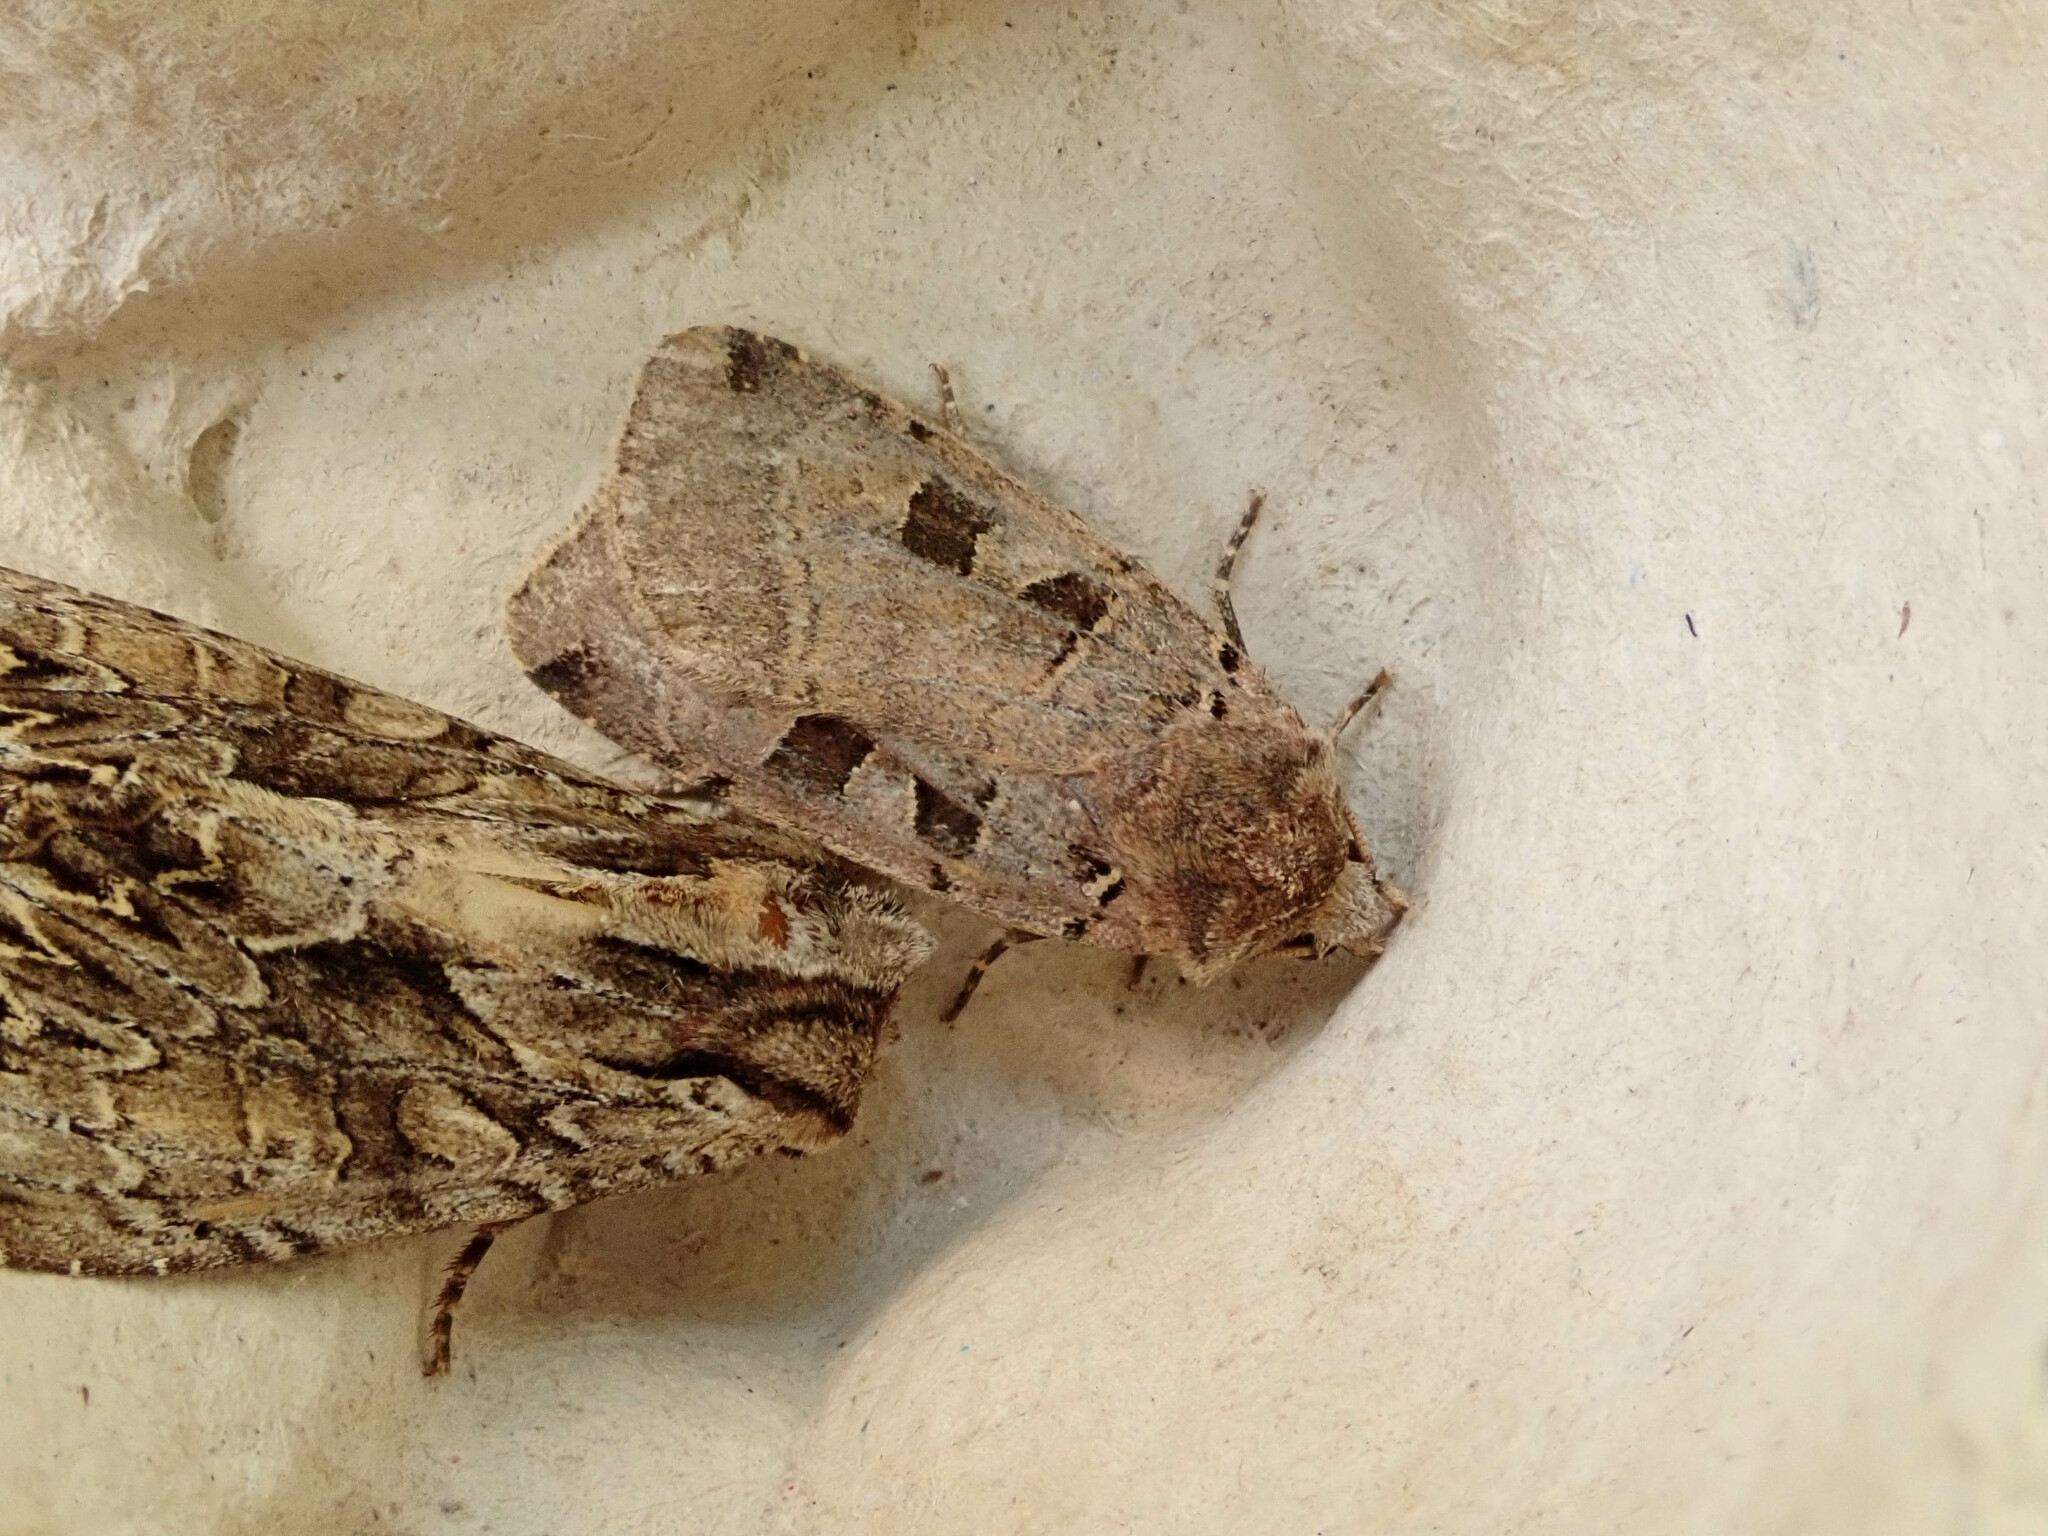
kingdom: Animalia
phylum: Arthropoda
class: Insecta
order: Lepidoptera
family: Noctuidae
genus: Xestia
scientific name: Xestia triangulum
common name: Double square-spot
